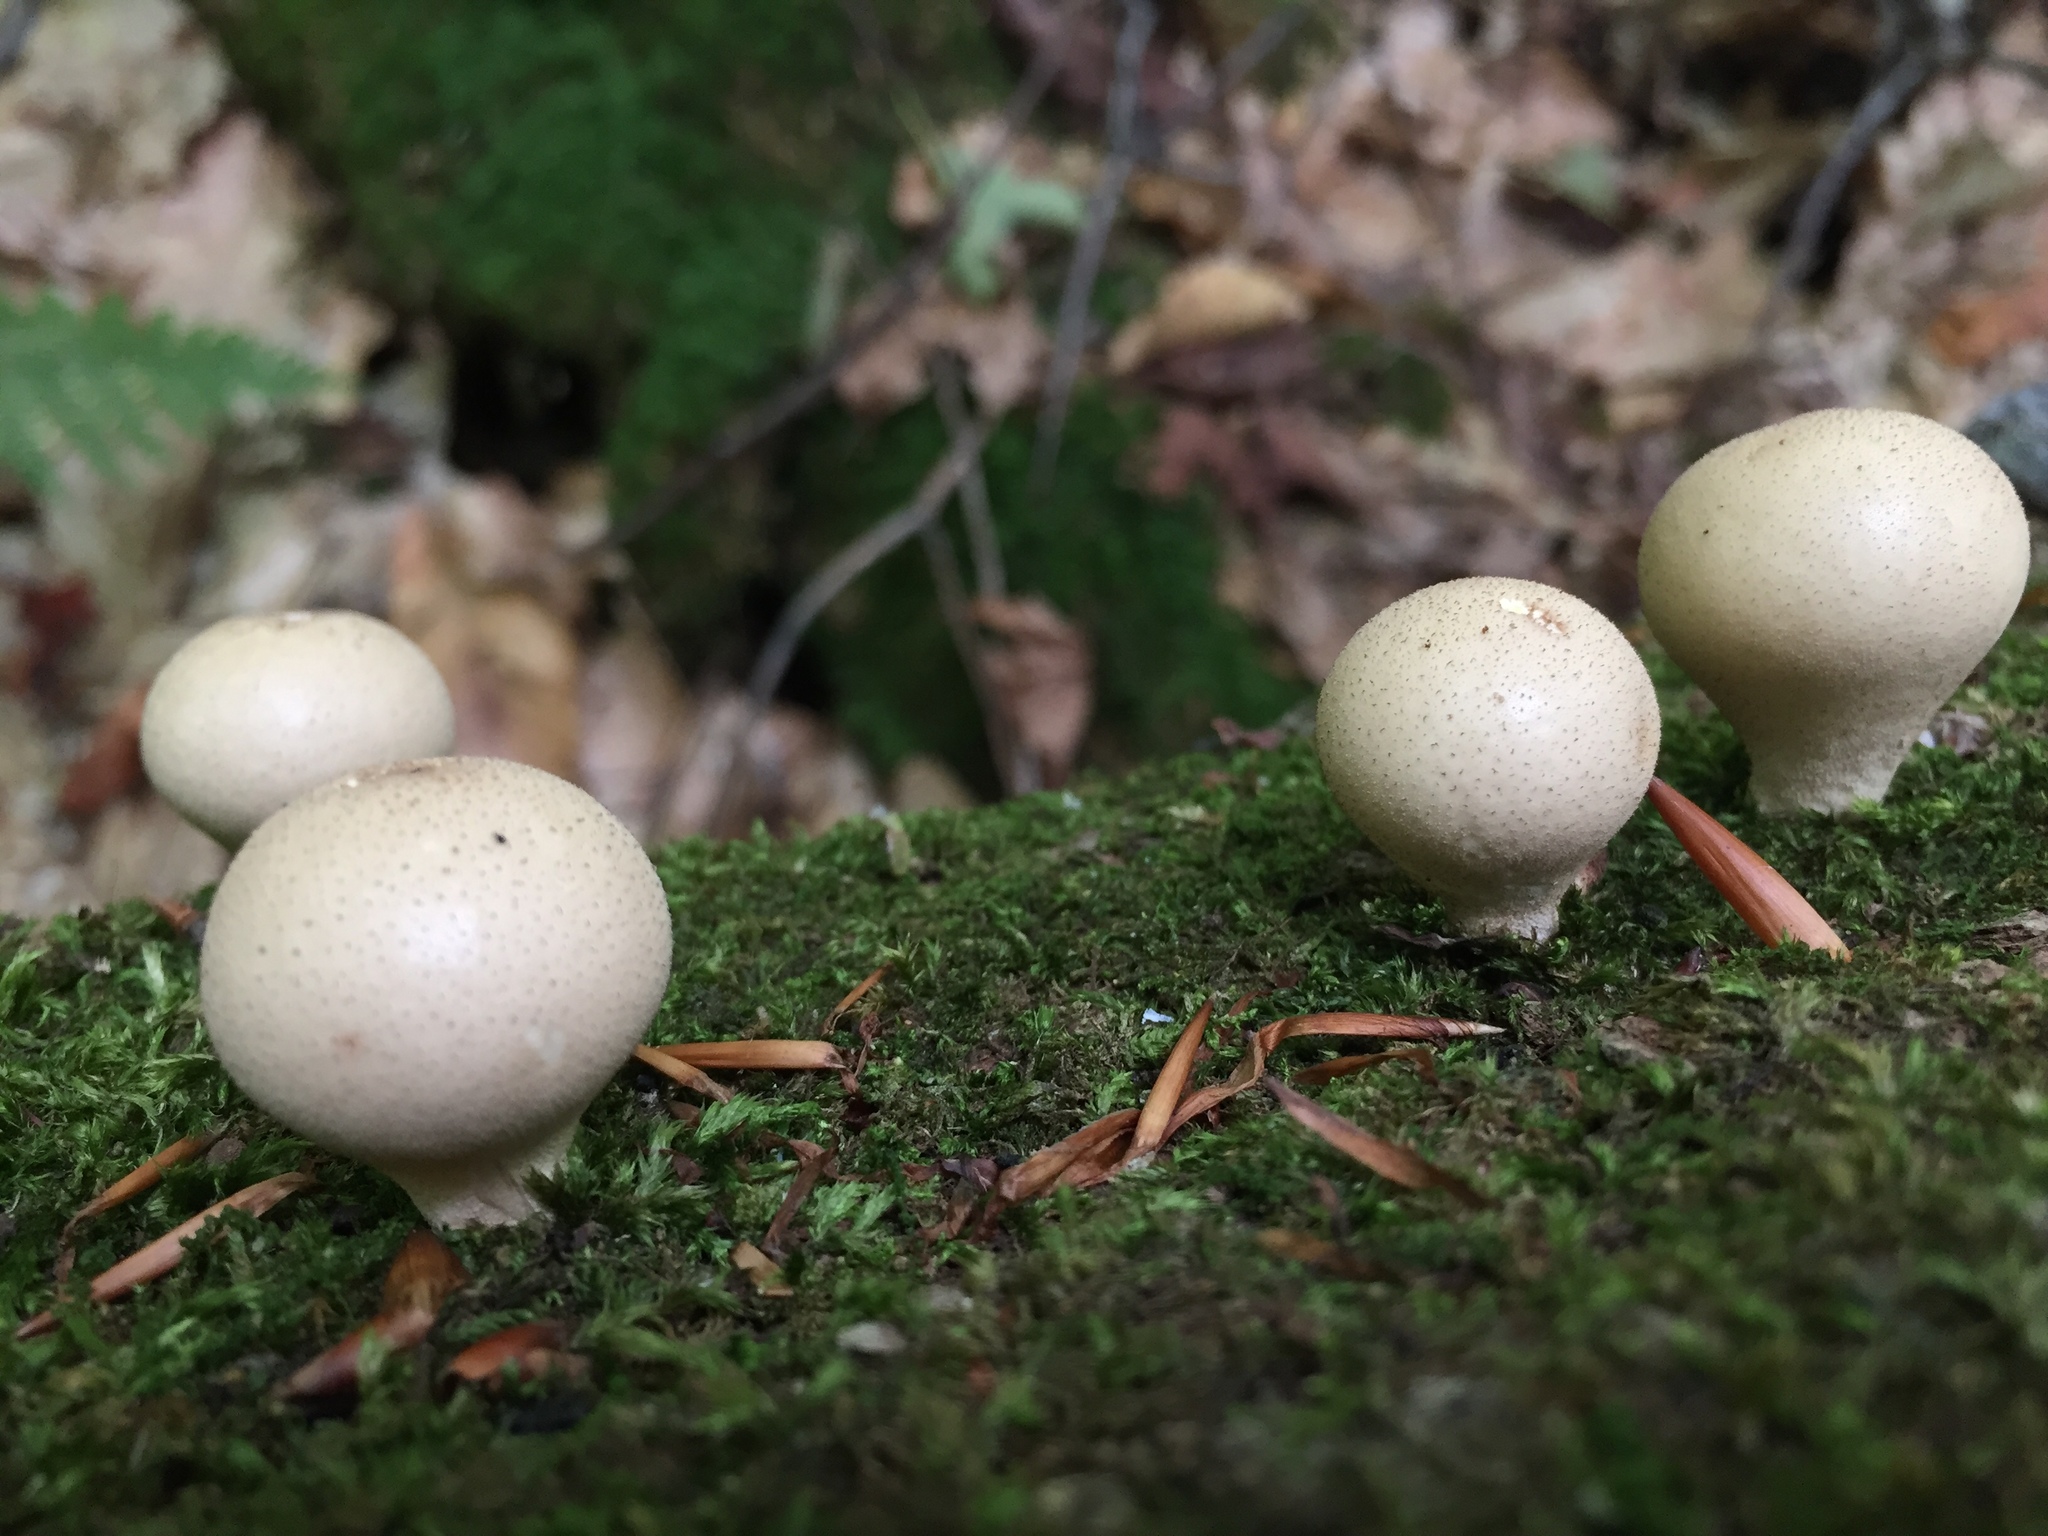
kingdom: Fungi
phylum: Basidiomycota
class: Agaricomycetes
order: Agaricales
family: Lycoperdaceae
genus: Apioperdon
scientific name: Apioperdon pyriforme
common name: Pear-shaped puffball
